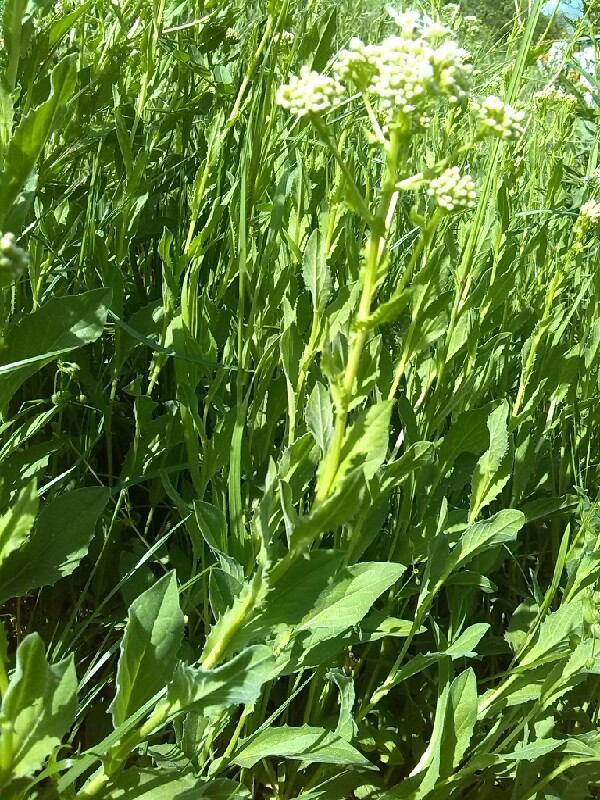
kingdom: Plantae
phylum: Tracheophyta
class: Magnoliopsida
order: Brassicales
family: Brassicaceae
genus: Lepidium
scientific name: Lepidium draba
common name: Hoary cress
